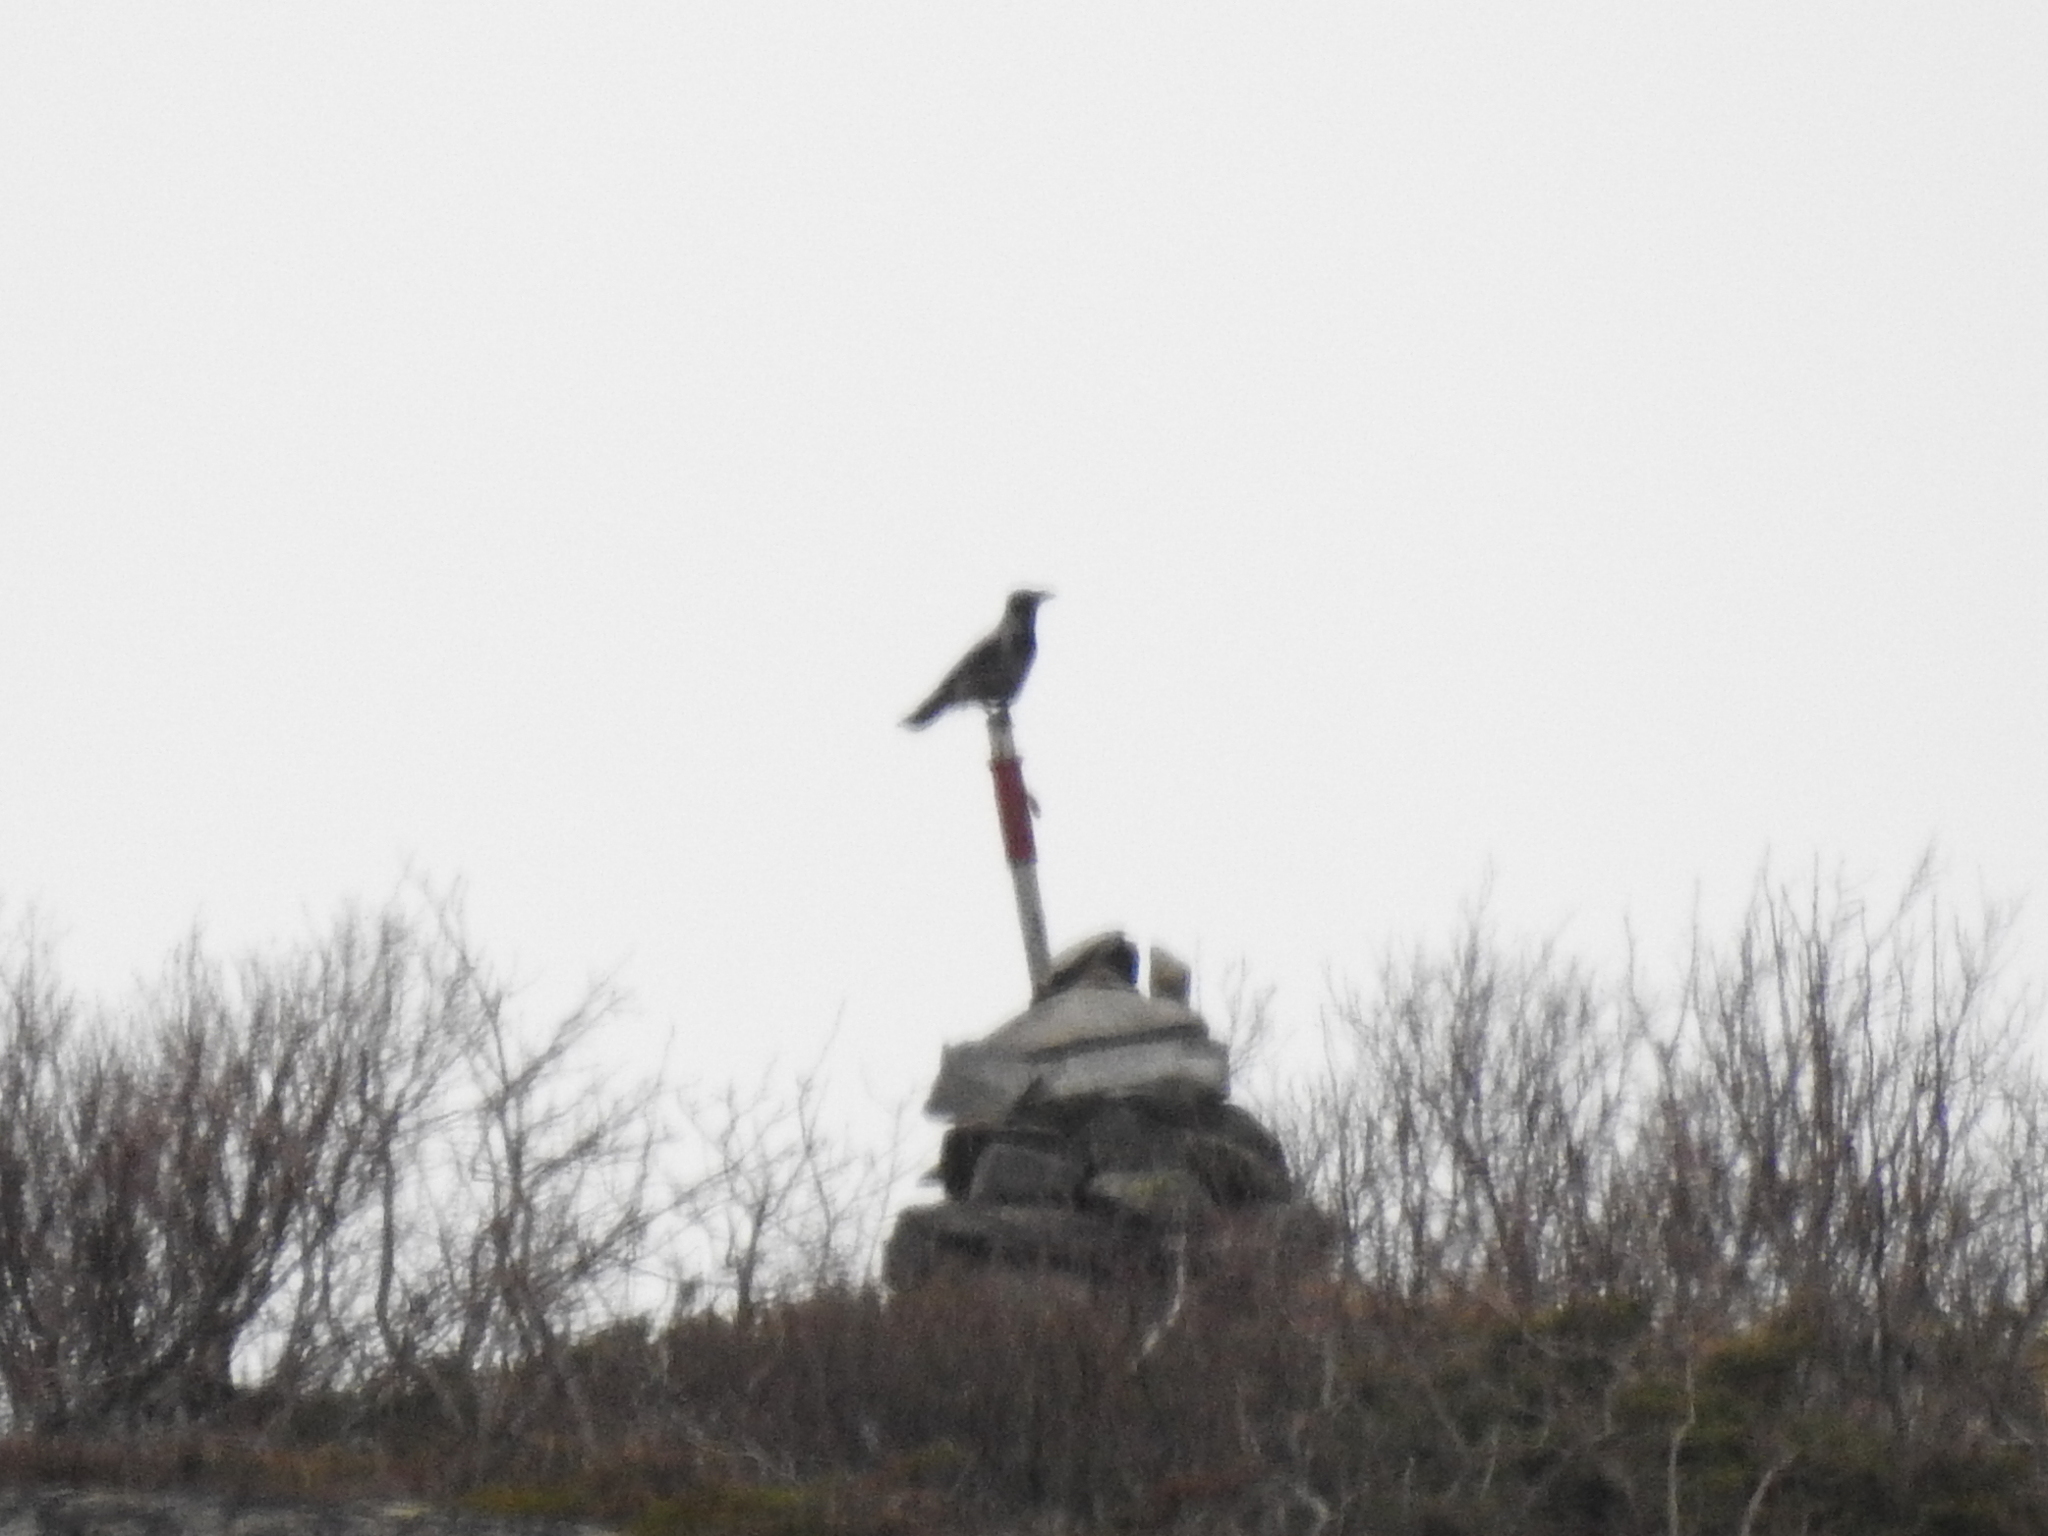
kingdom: Animalia
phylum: Chordata
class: Aves
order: Passeriformes
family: Corvidae
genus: Corvus
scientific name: Corvus cornix
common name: Hooded crow
